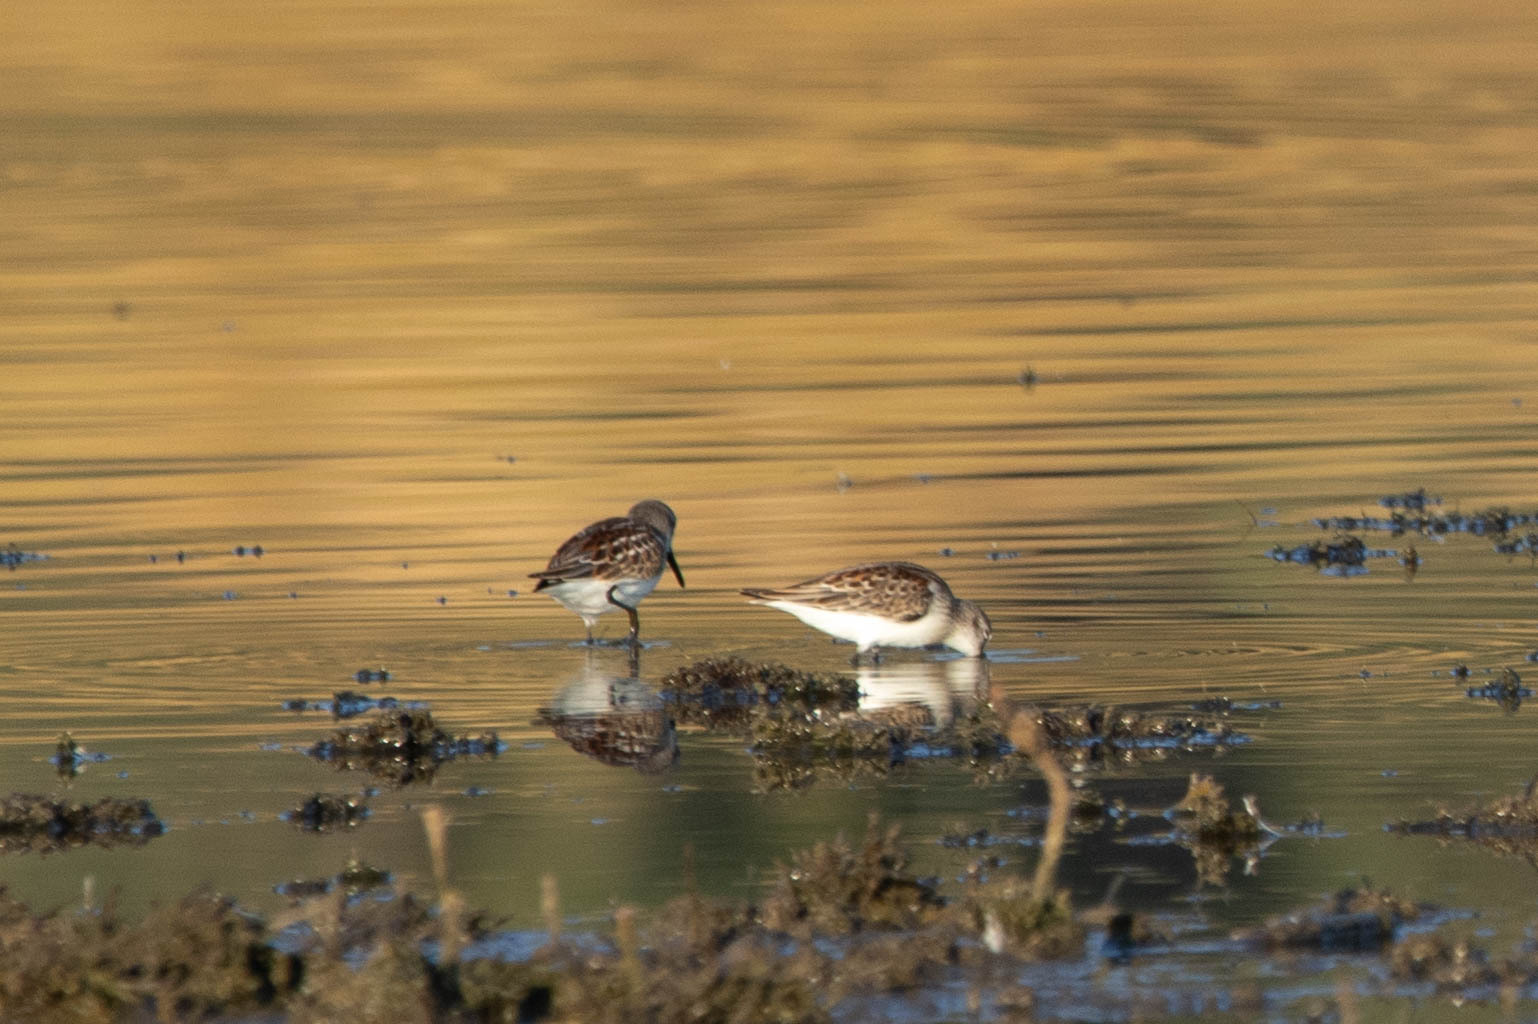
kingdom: Animalia
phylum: Chordata
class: Aves
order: Charadriiformes
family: Scolopacidae
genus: Calidris
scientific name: Calidris mauri
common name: Western sandpiper
